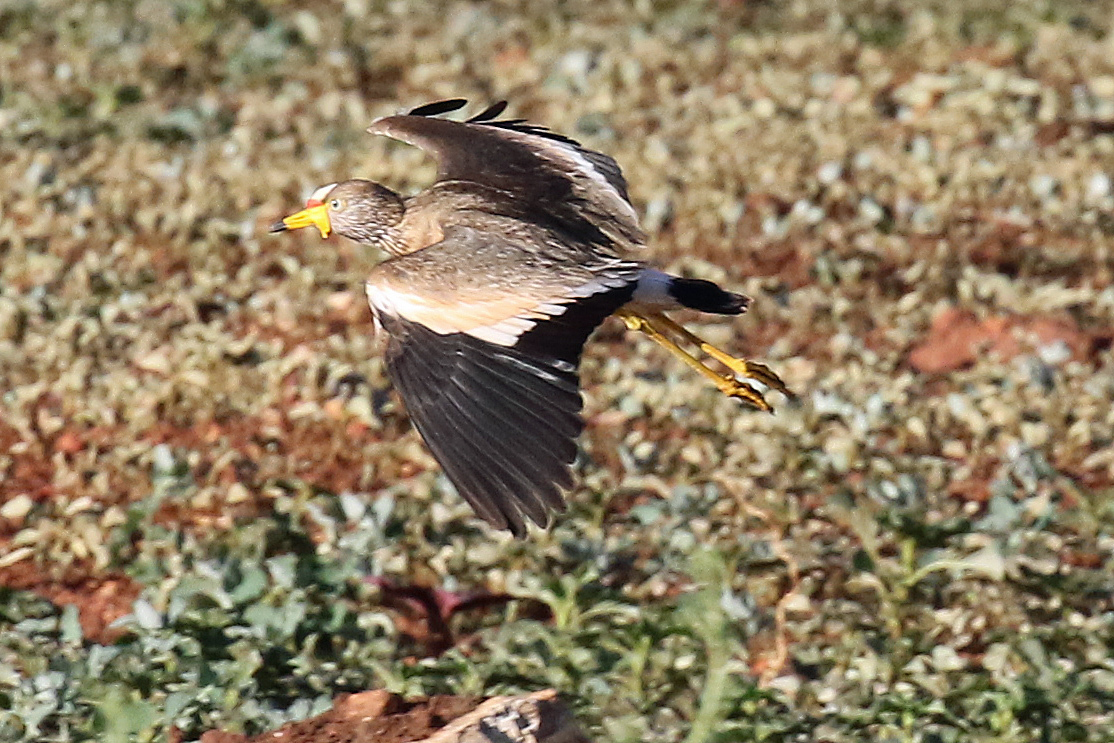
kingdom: Animalia
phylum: Chordata
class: Aves
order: Charadriiformes
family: Charadriidae
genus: Vanellus
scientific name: Vanellus senegallus
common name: African wattled lapwing
